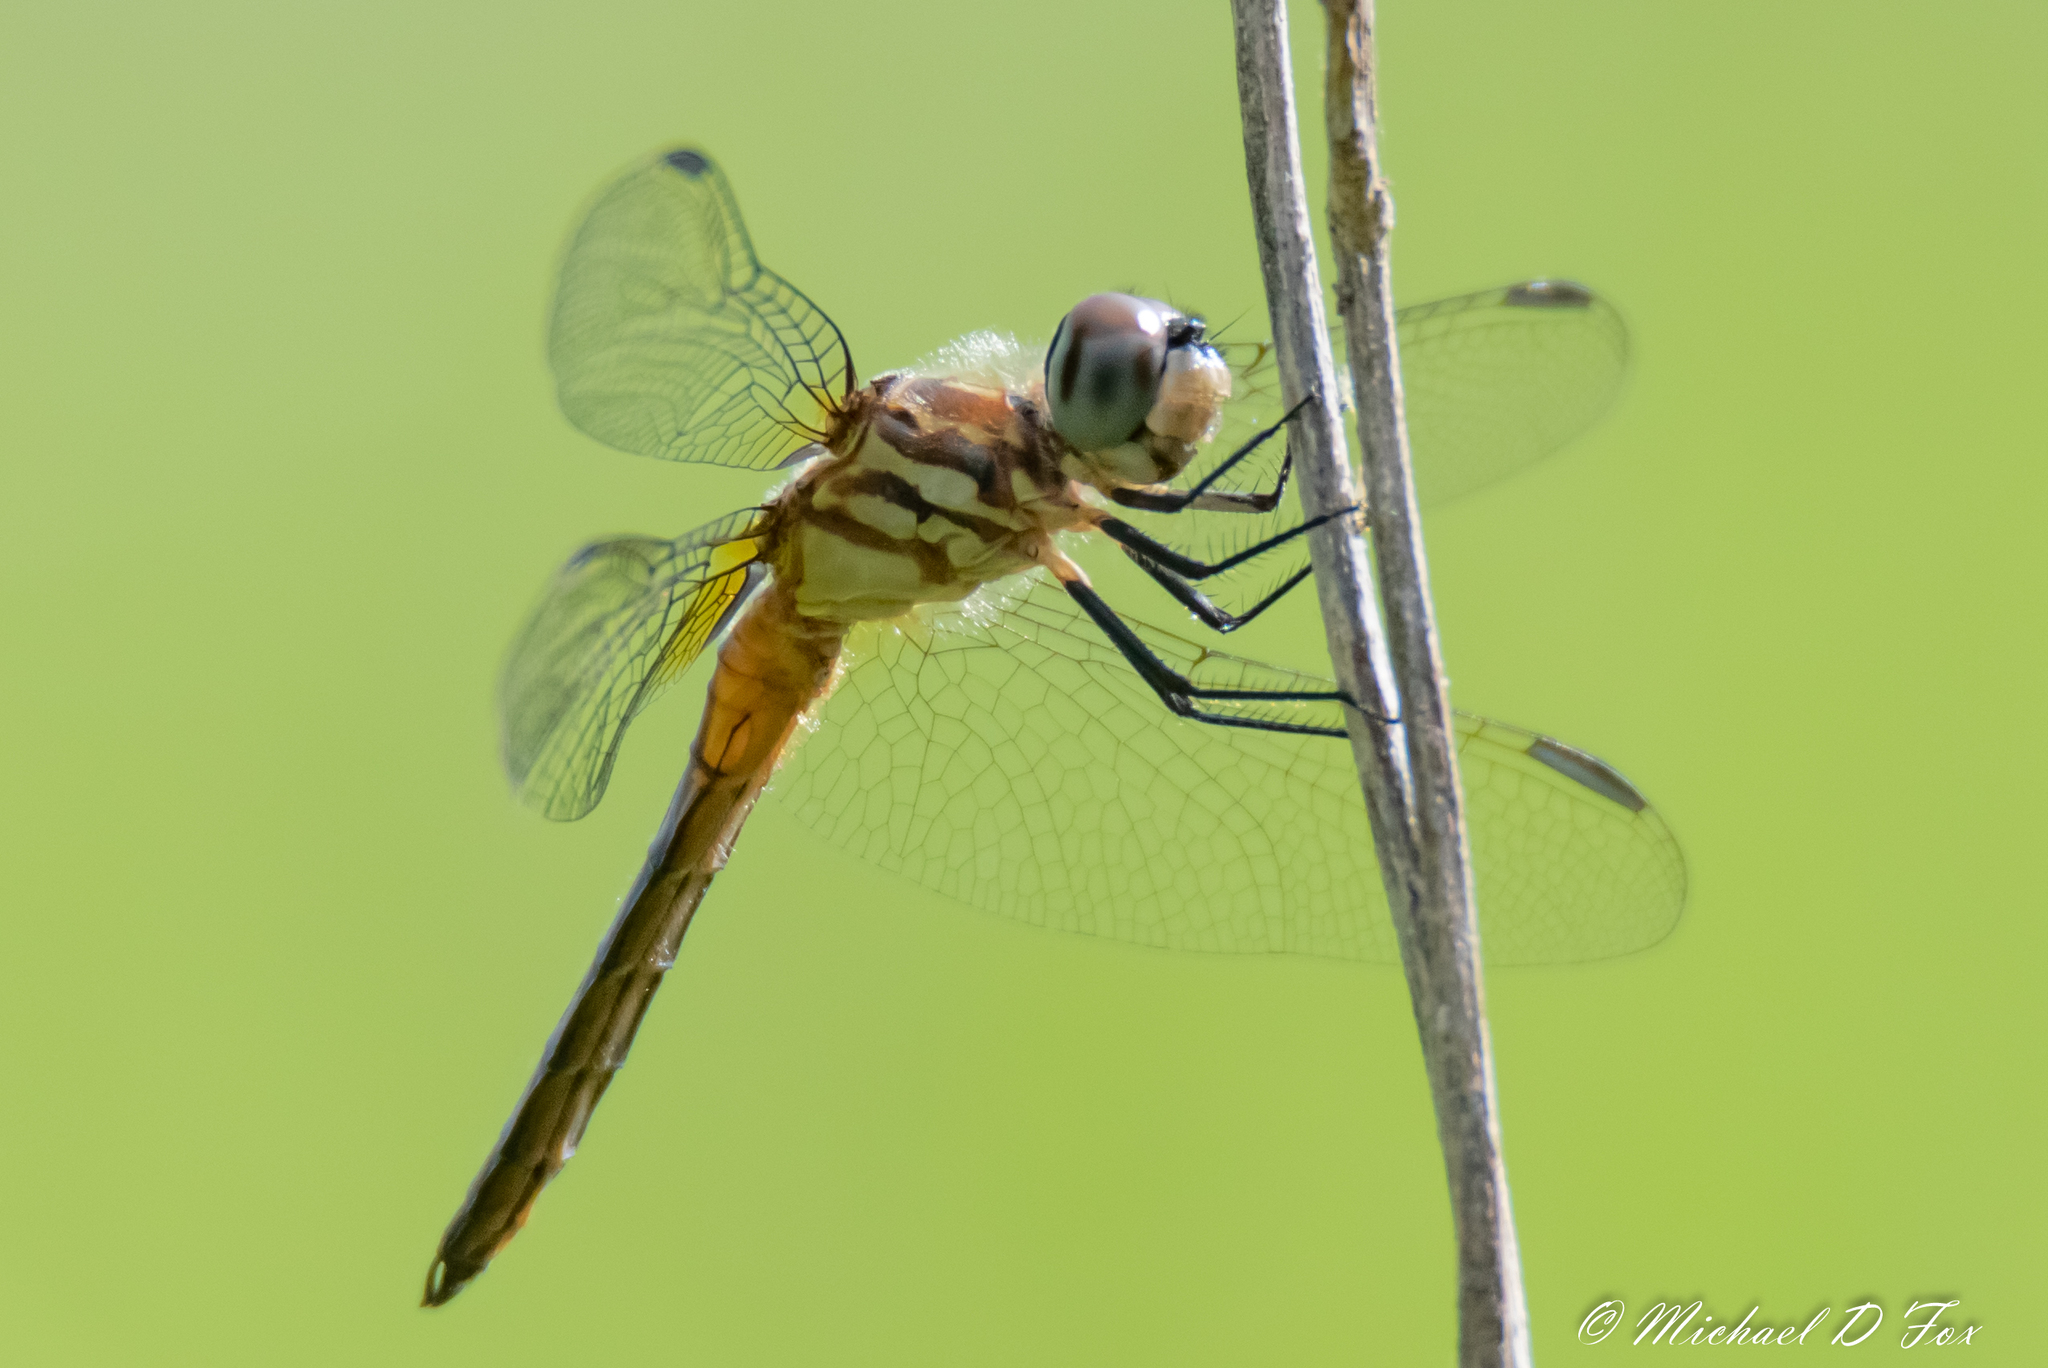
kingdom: Animalia
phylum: Arthropoda
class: Insecta
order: Odonata
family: Libellulidae
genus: Pachydiplax
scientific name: Pachydiplax longipennis
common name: Blue dasher
